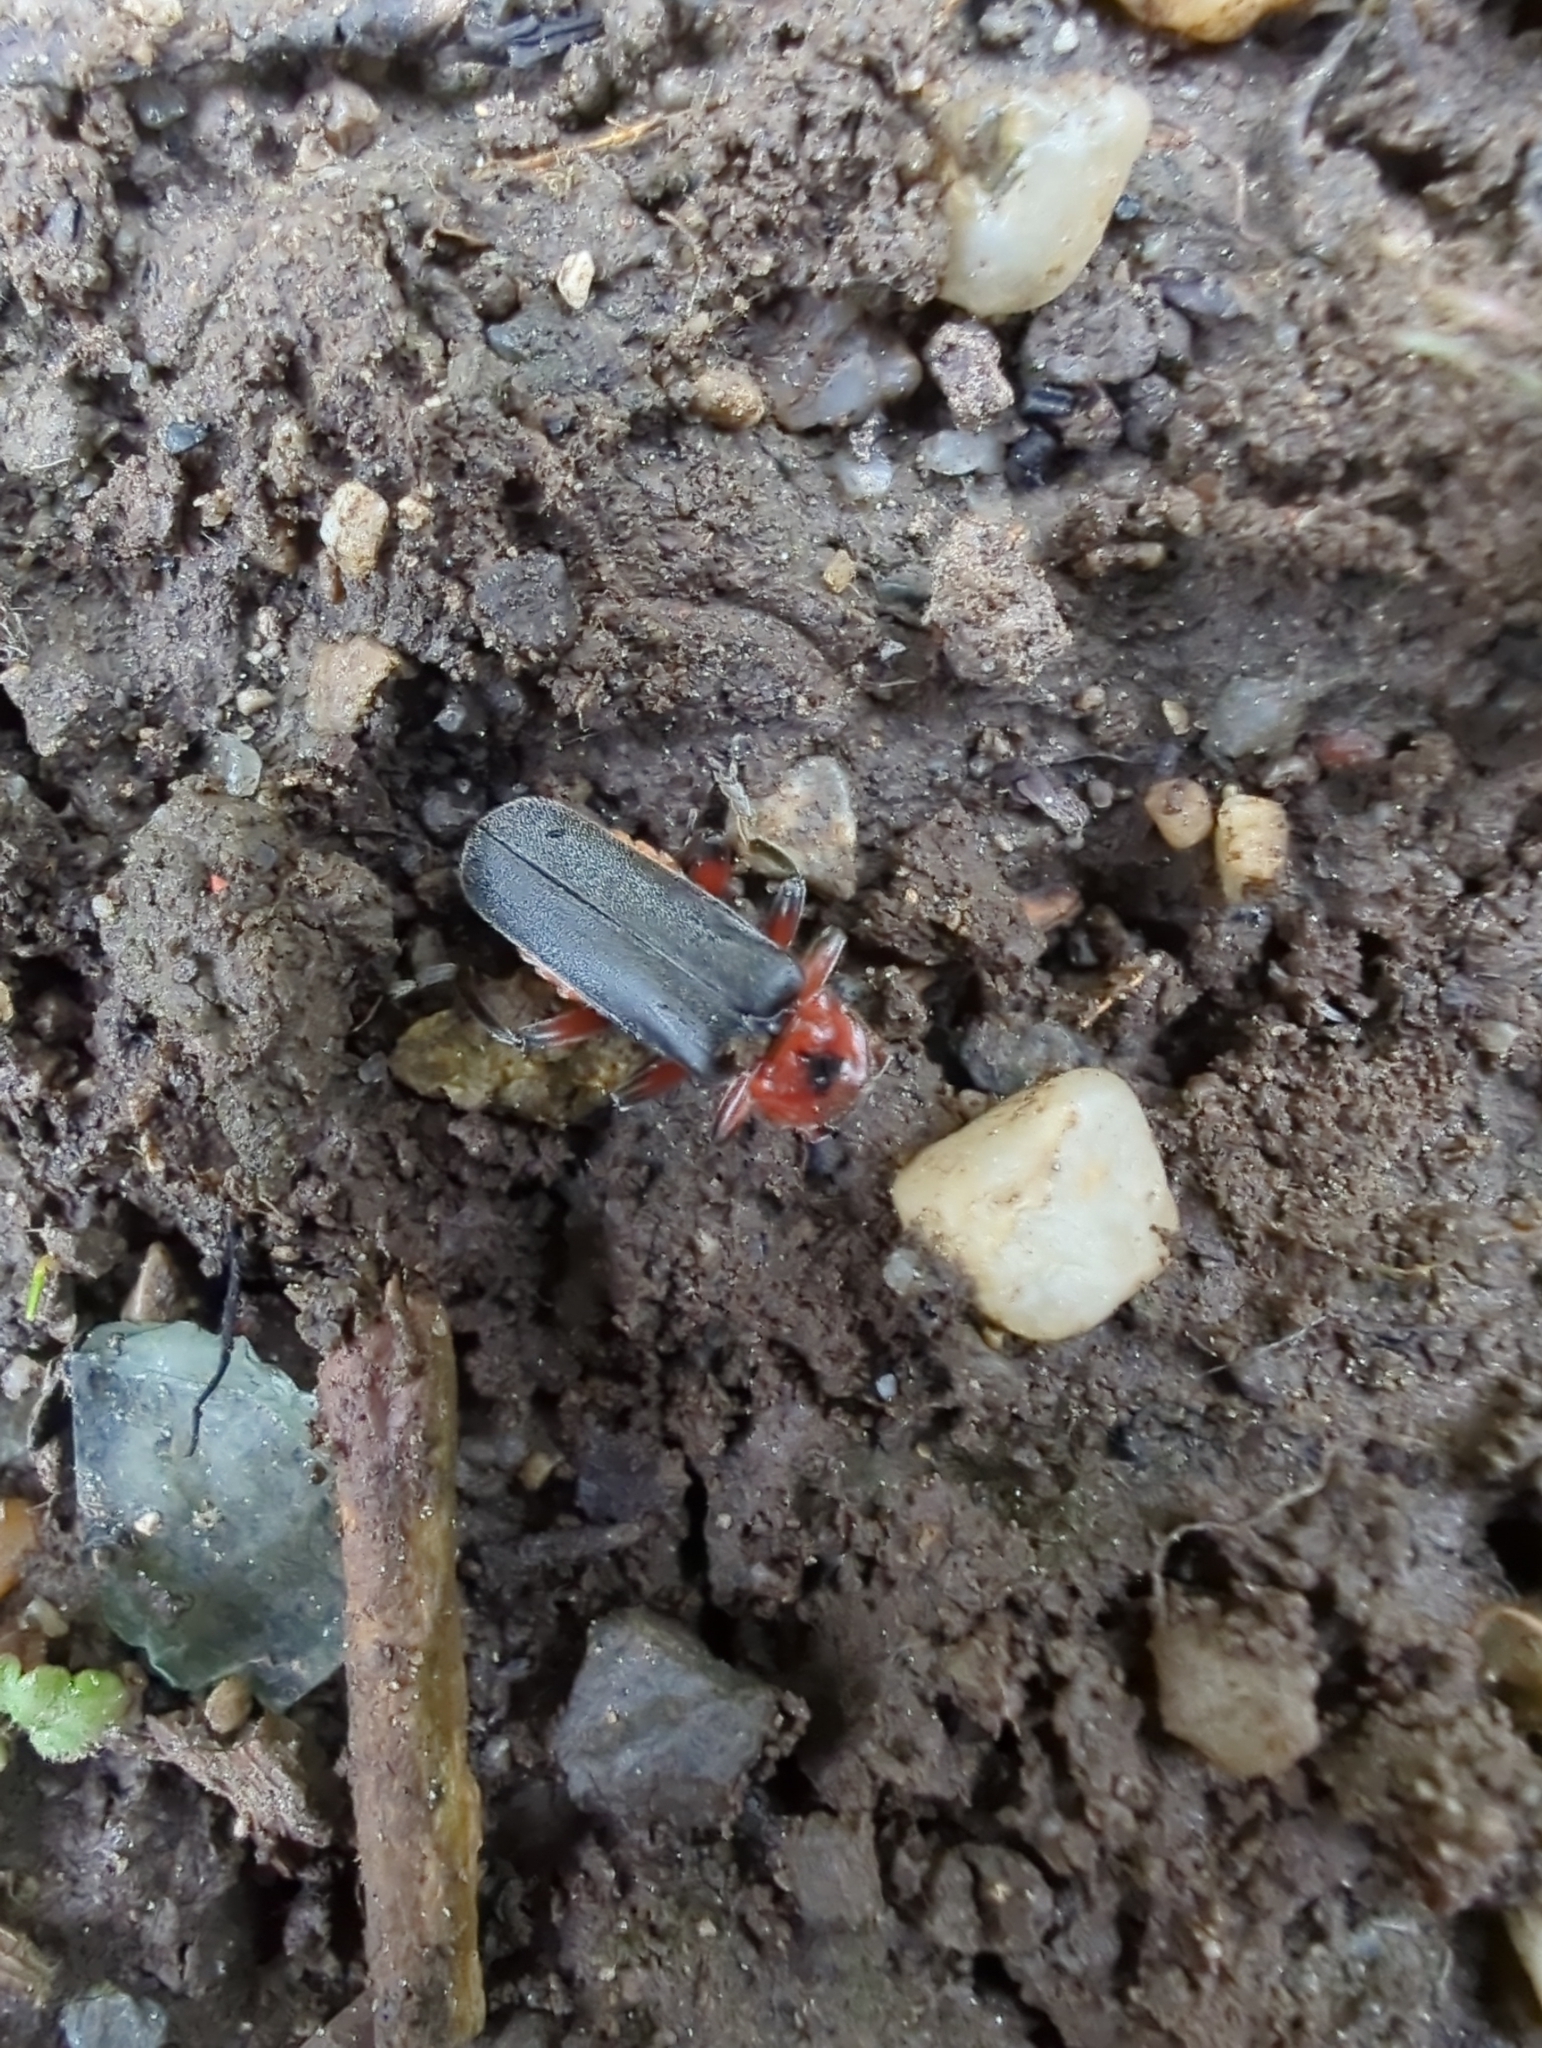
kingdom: Animalia
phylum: Arthropoda
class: Insecta
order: Coleoptera
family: Cantharidae
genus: Cantharis
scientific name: Cantharis rustica
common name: Soldier beetle
